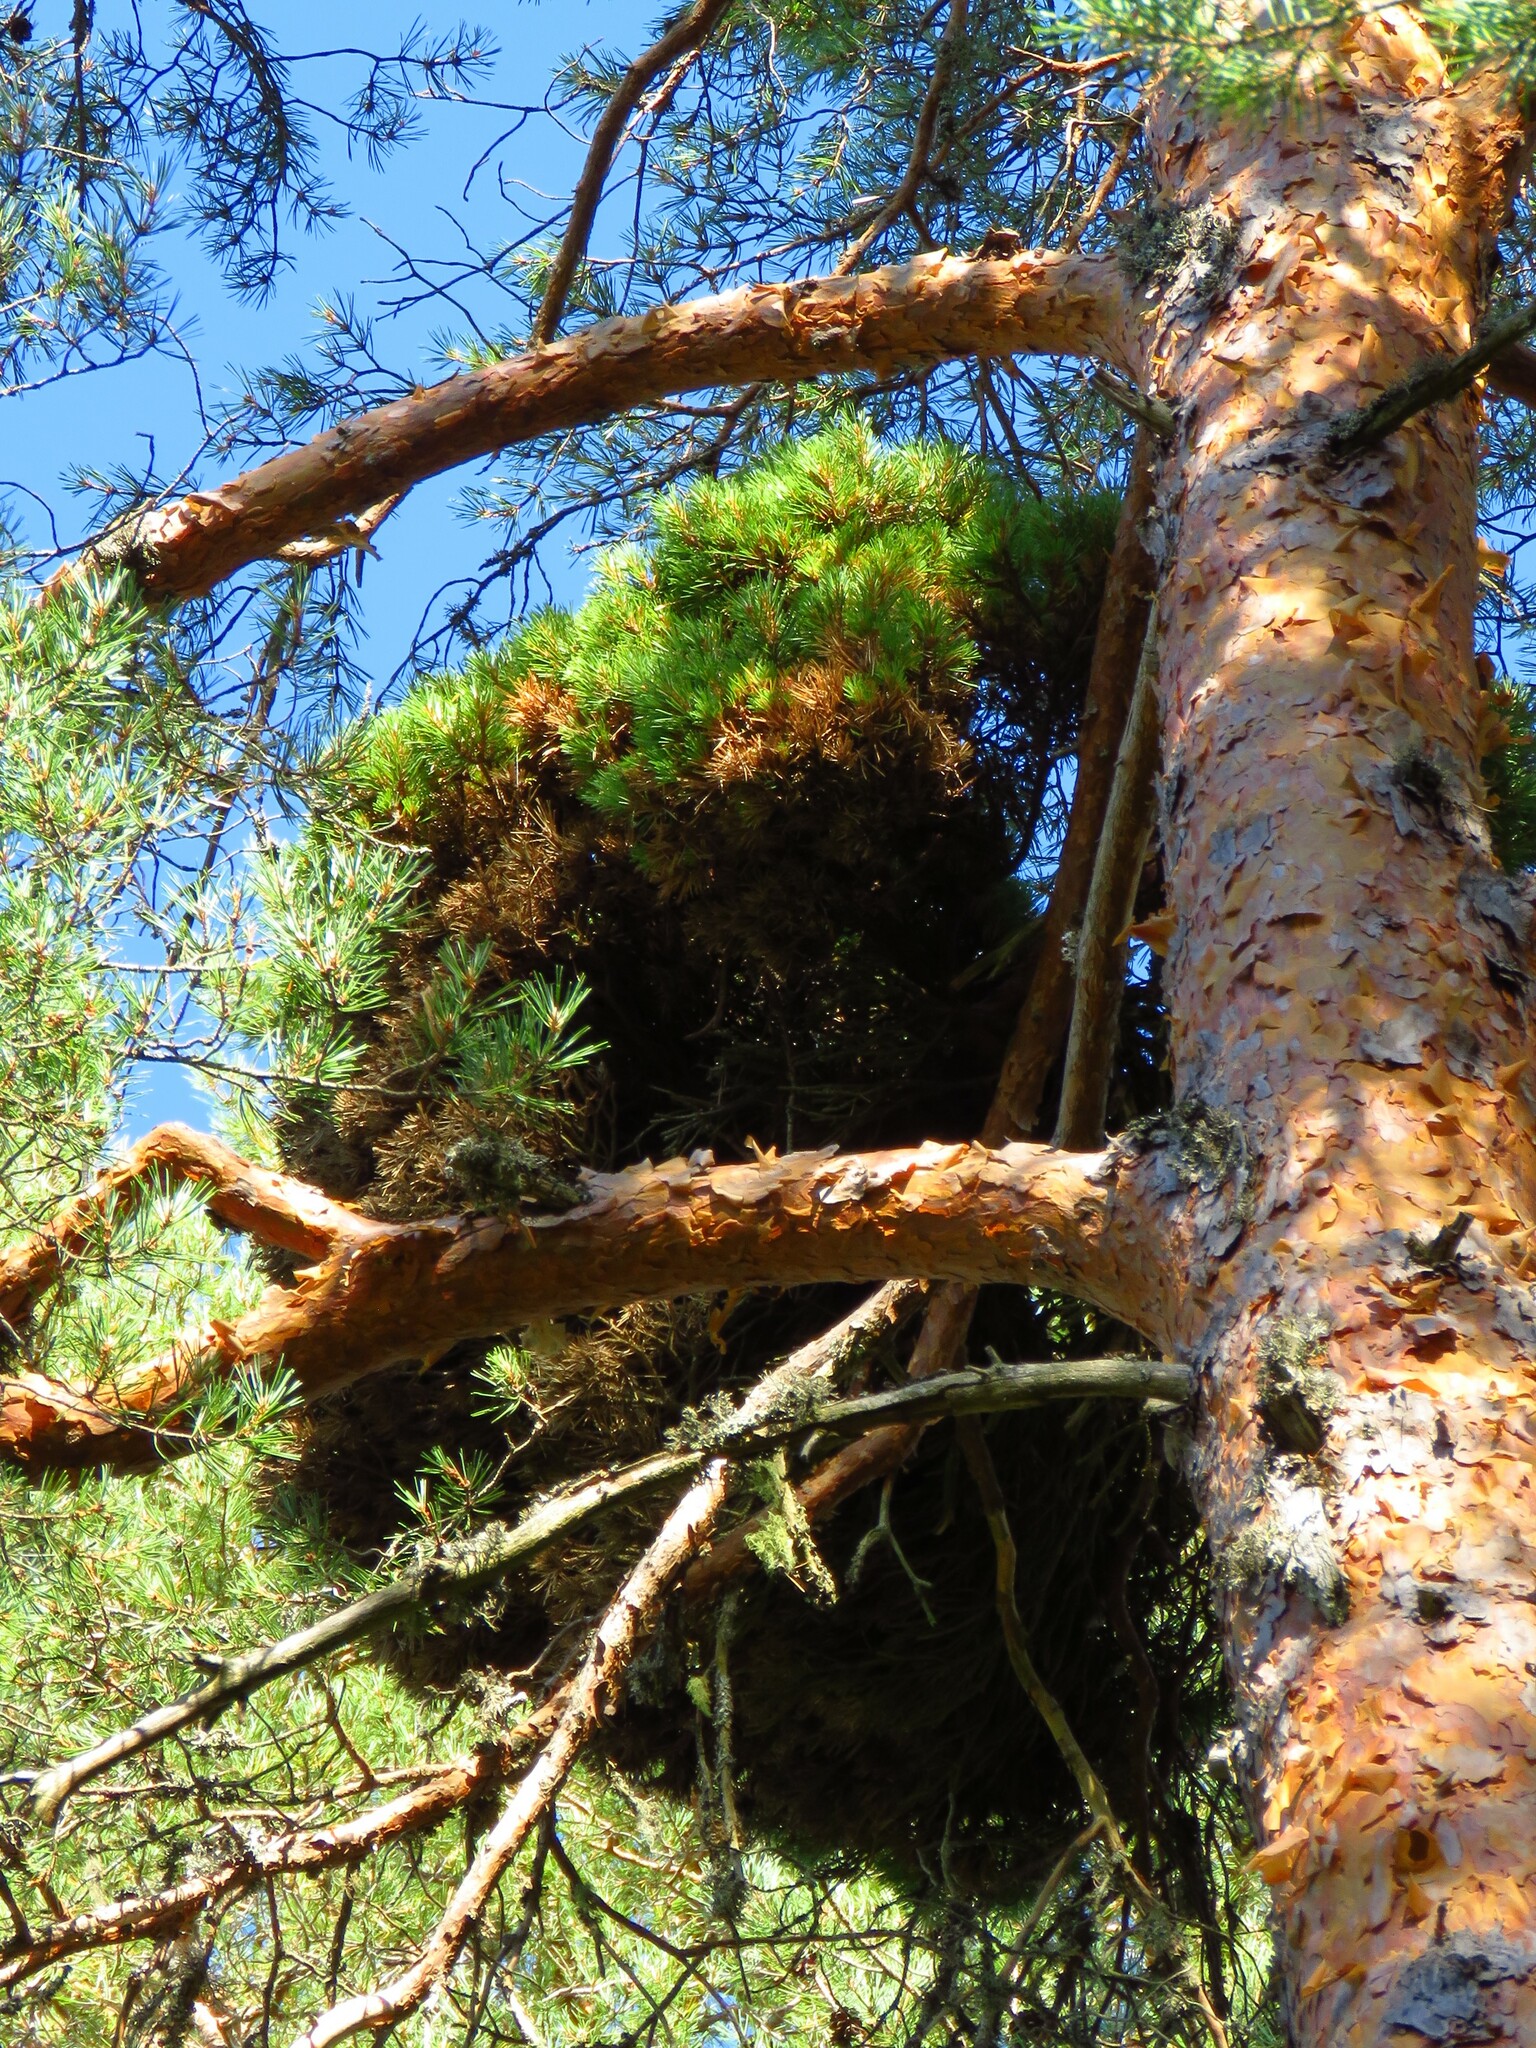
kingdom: Plantae
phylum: Tracheophyta
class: Pinopsida
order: Pinales
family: Pinaceae
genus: Pinus
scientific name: Pinus sylvestris
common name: Scots pine
